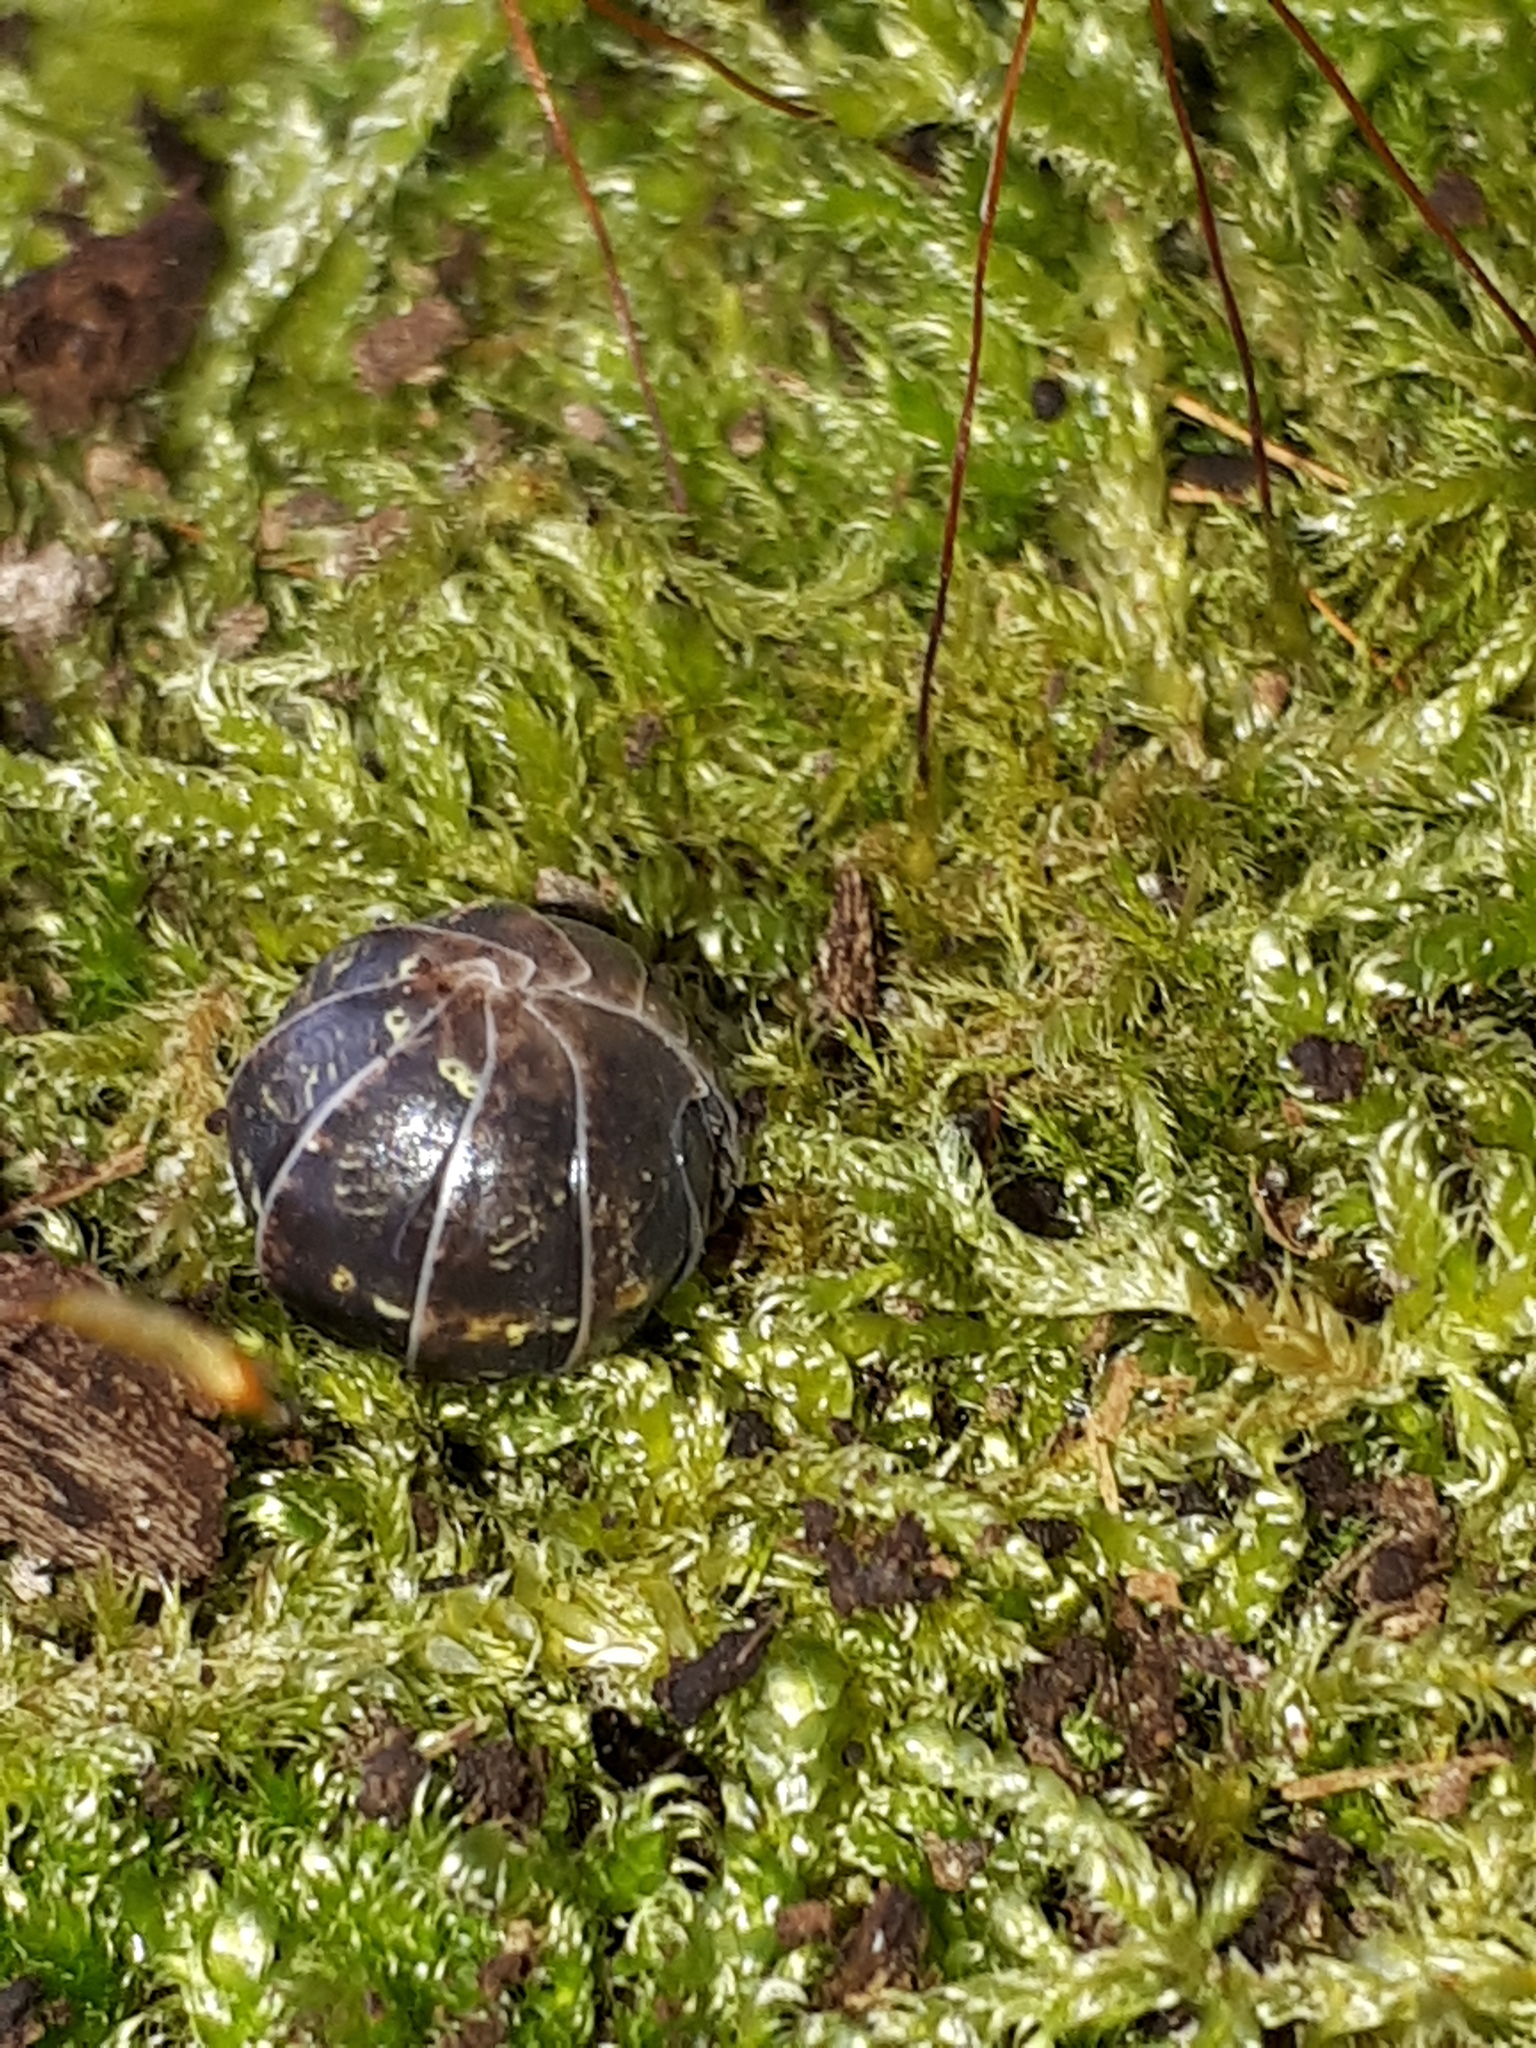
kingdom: Animalia
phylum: Arthropoda
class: Malacostraca
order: Isopoda
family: Armadillidiidae
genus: Armadillidium
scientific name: Armadillidium vulgare
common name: Common pill woodlouse
